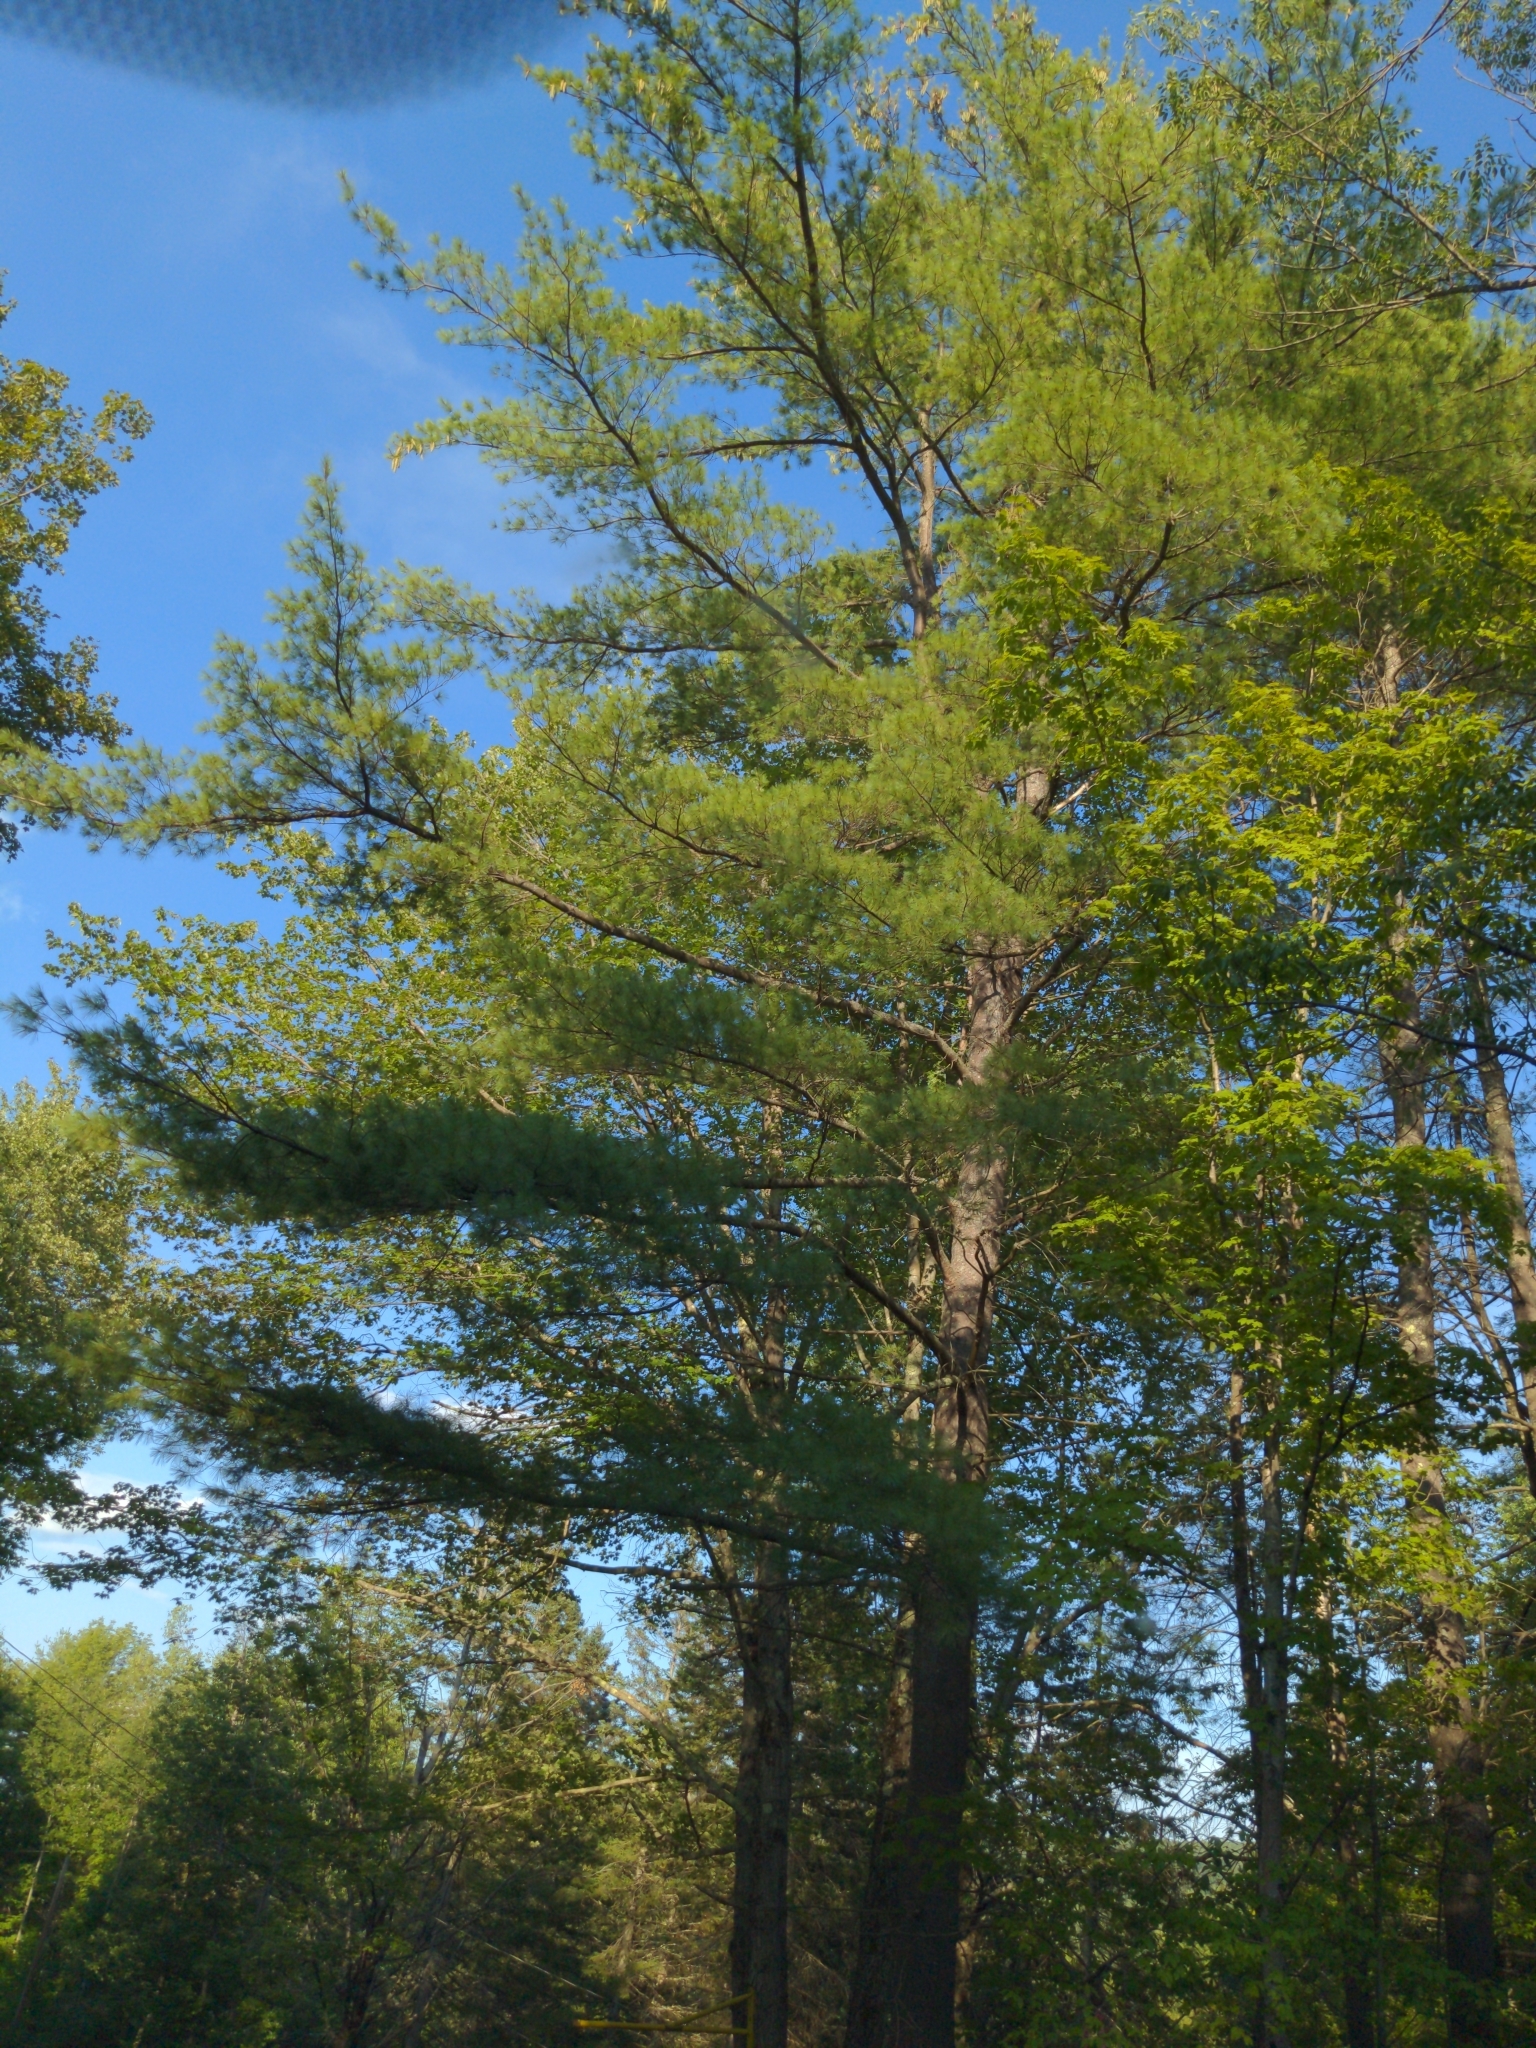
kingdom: Plantae
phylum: Tracheophyta
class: Pinopsida
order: Pinales
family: Pinaceae
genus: Pinus
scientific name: Pinus strobus
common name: Weymouth pine
